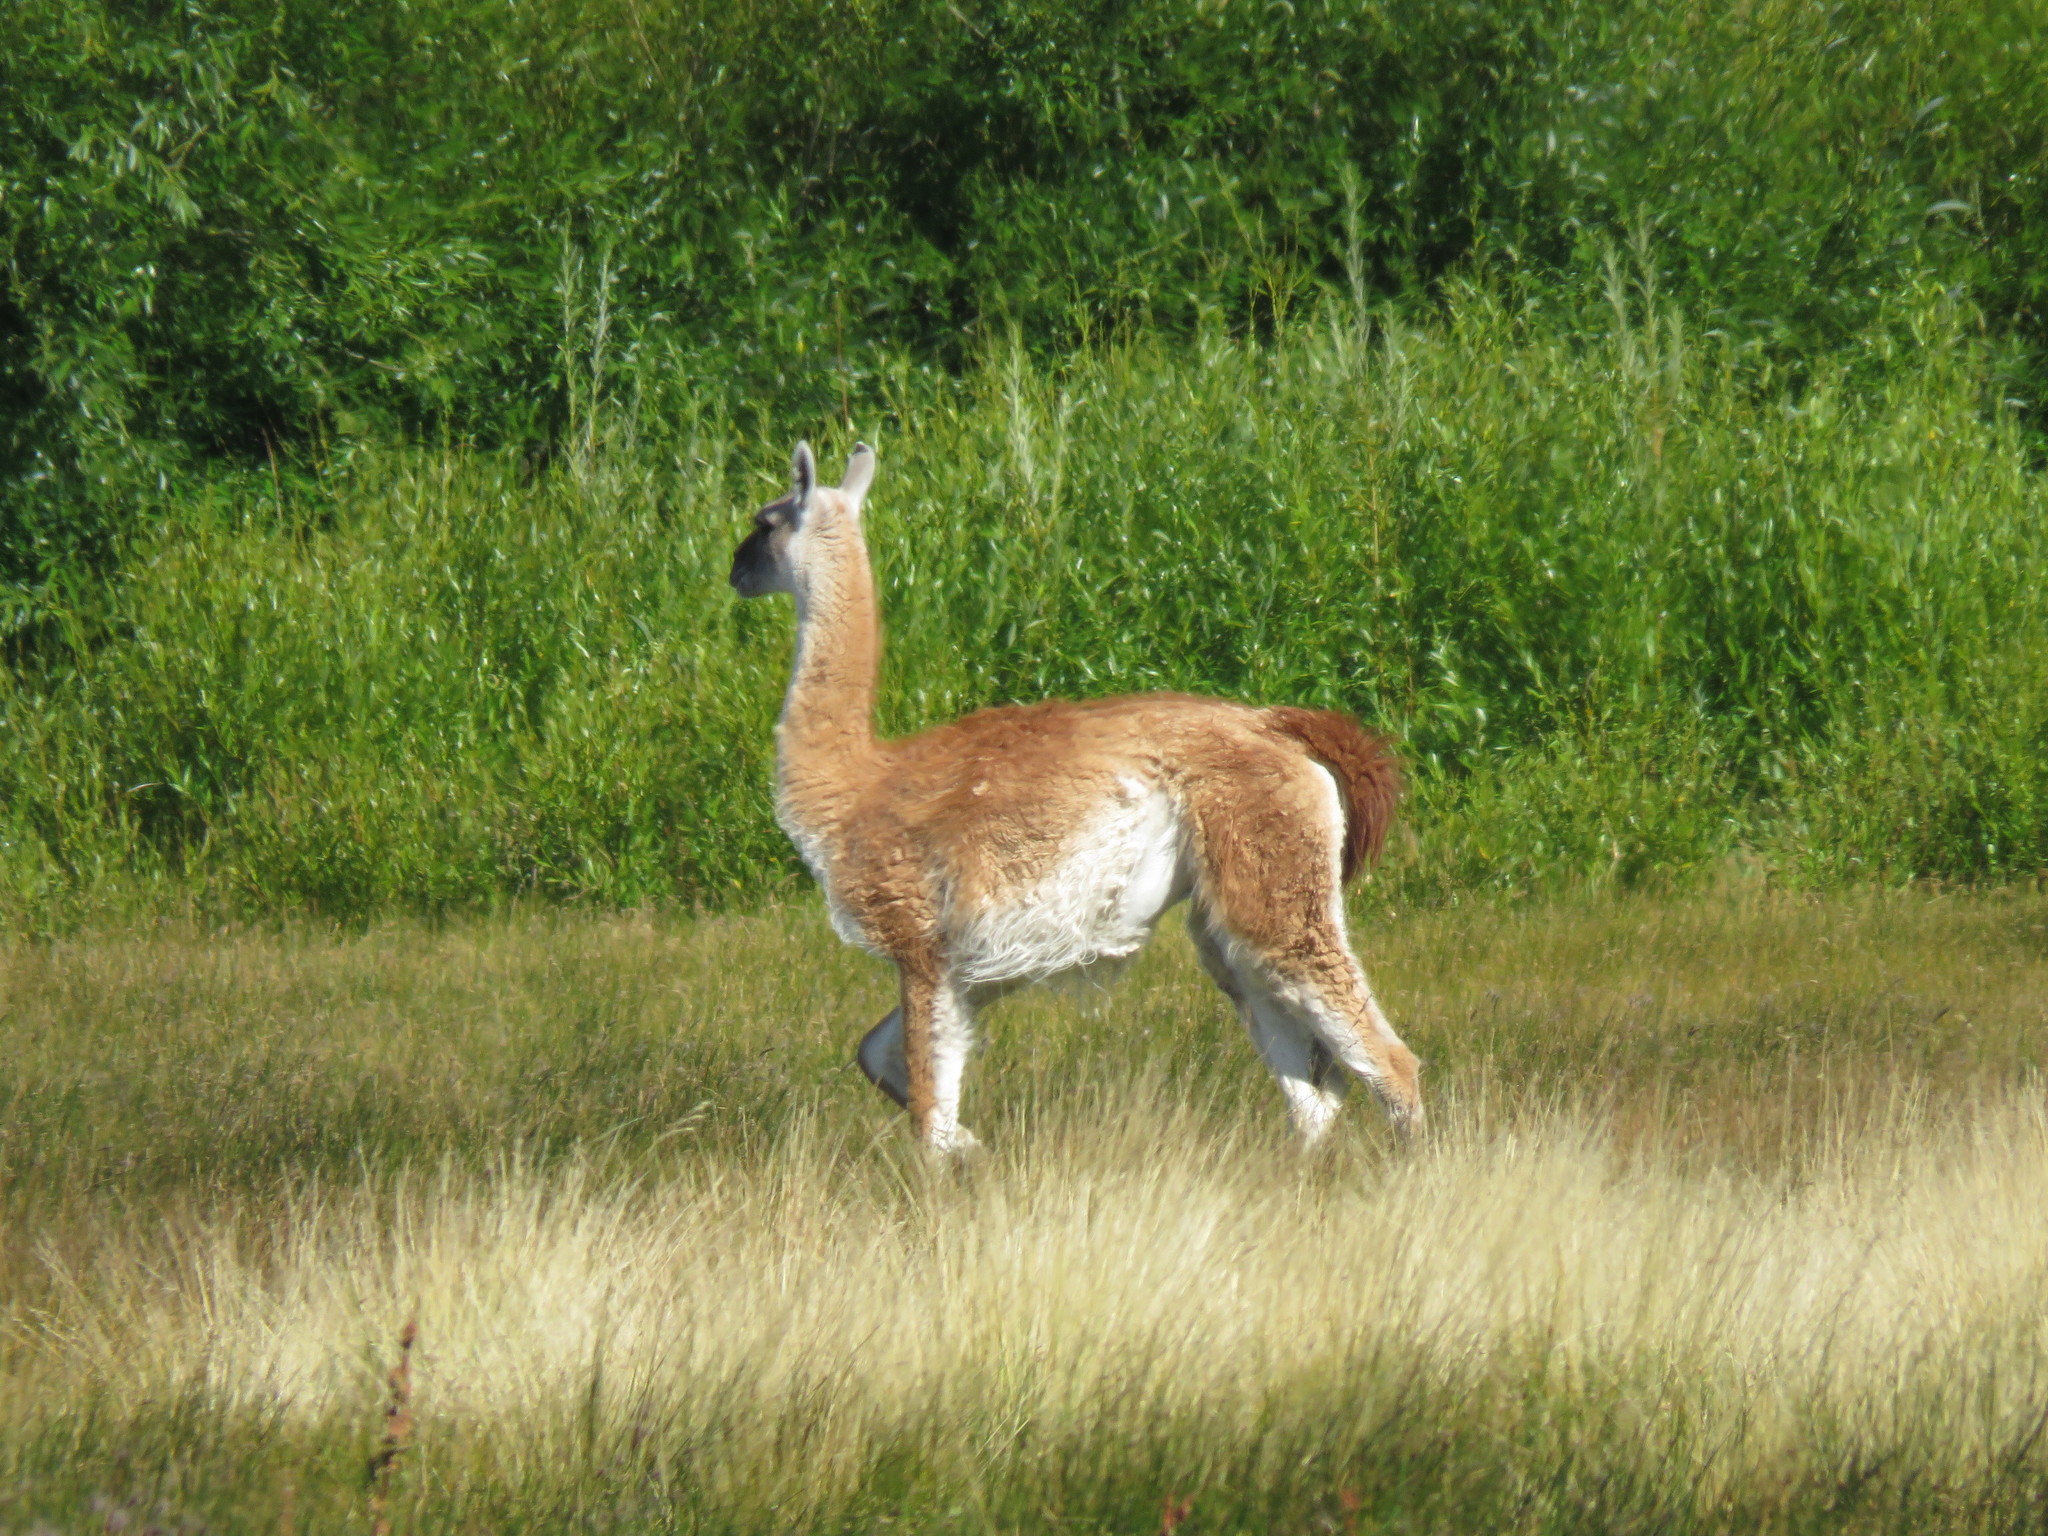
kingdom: Animalia
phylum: Chordata
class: Mammalia
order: Artiodactyla
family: Camelidae
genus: Lama
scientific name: Lama glama
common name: Llama
